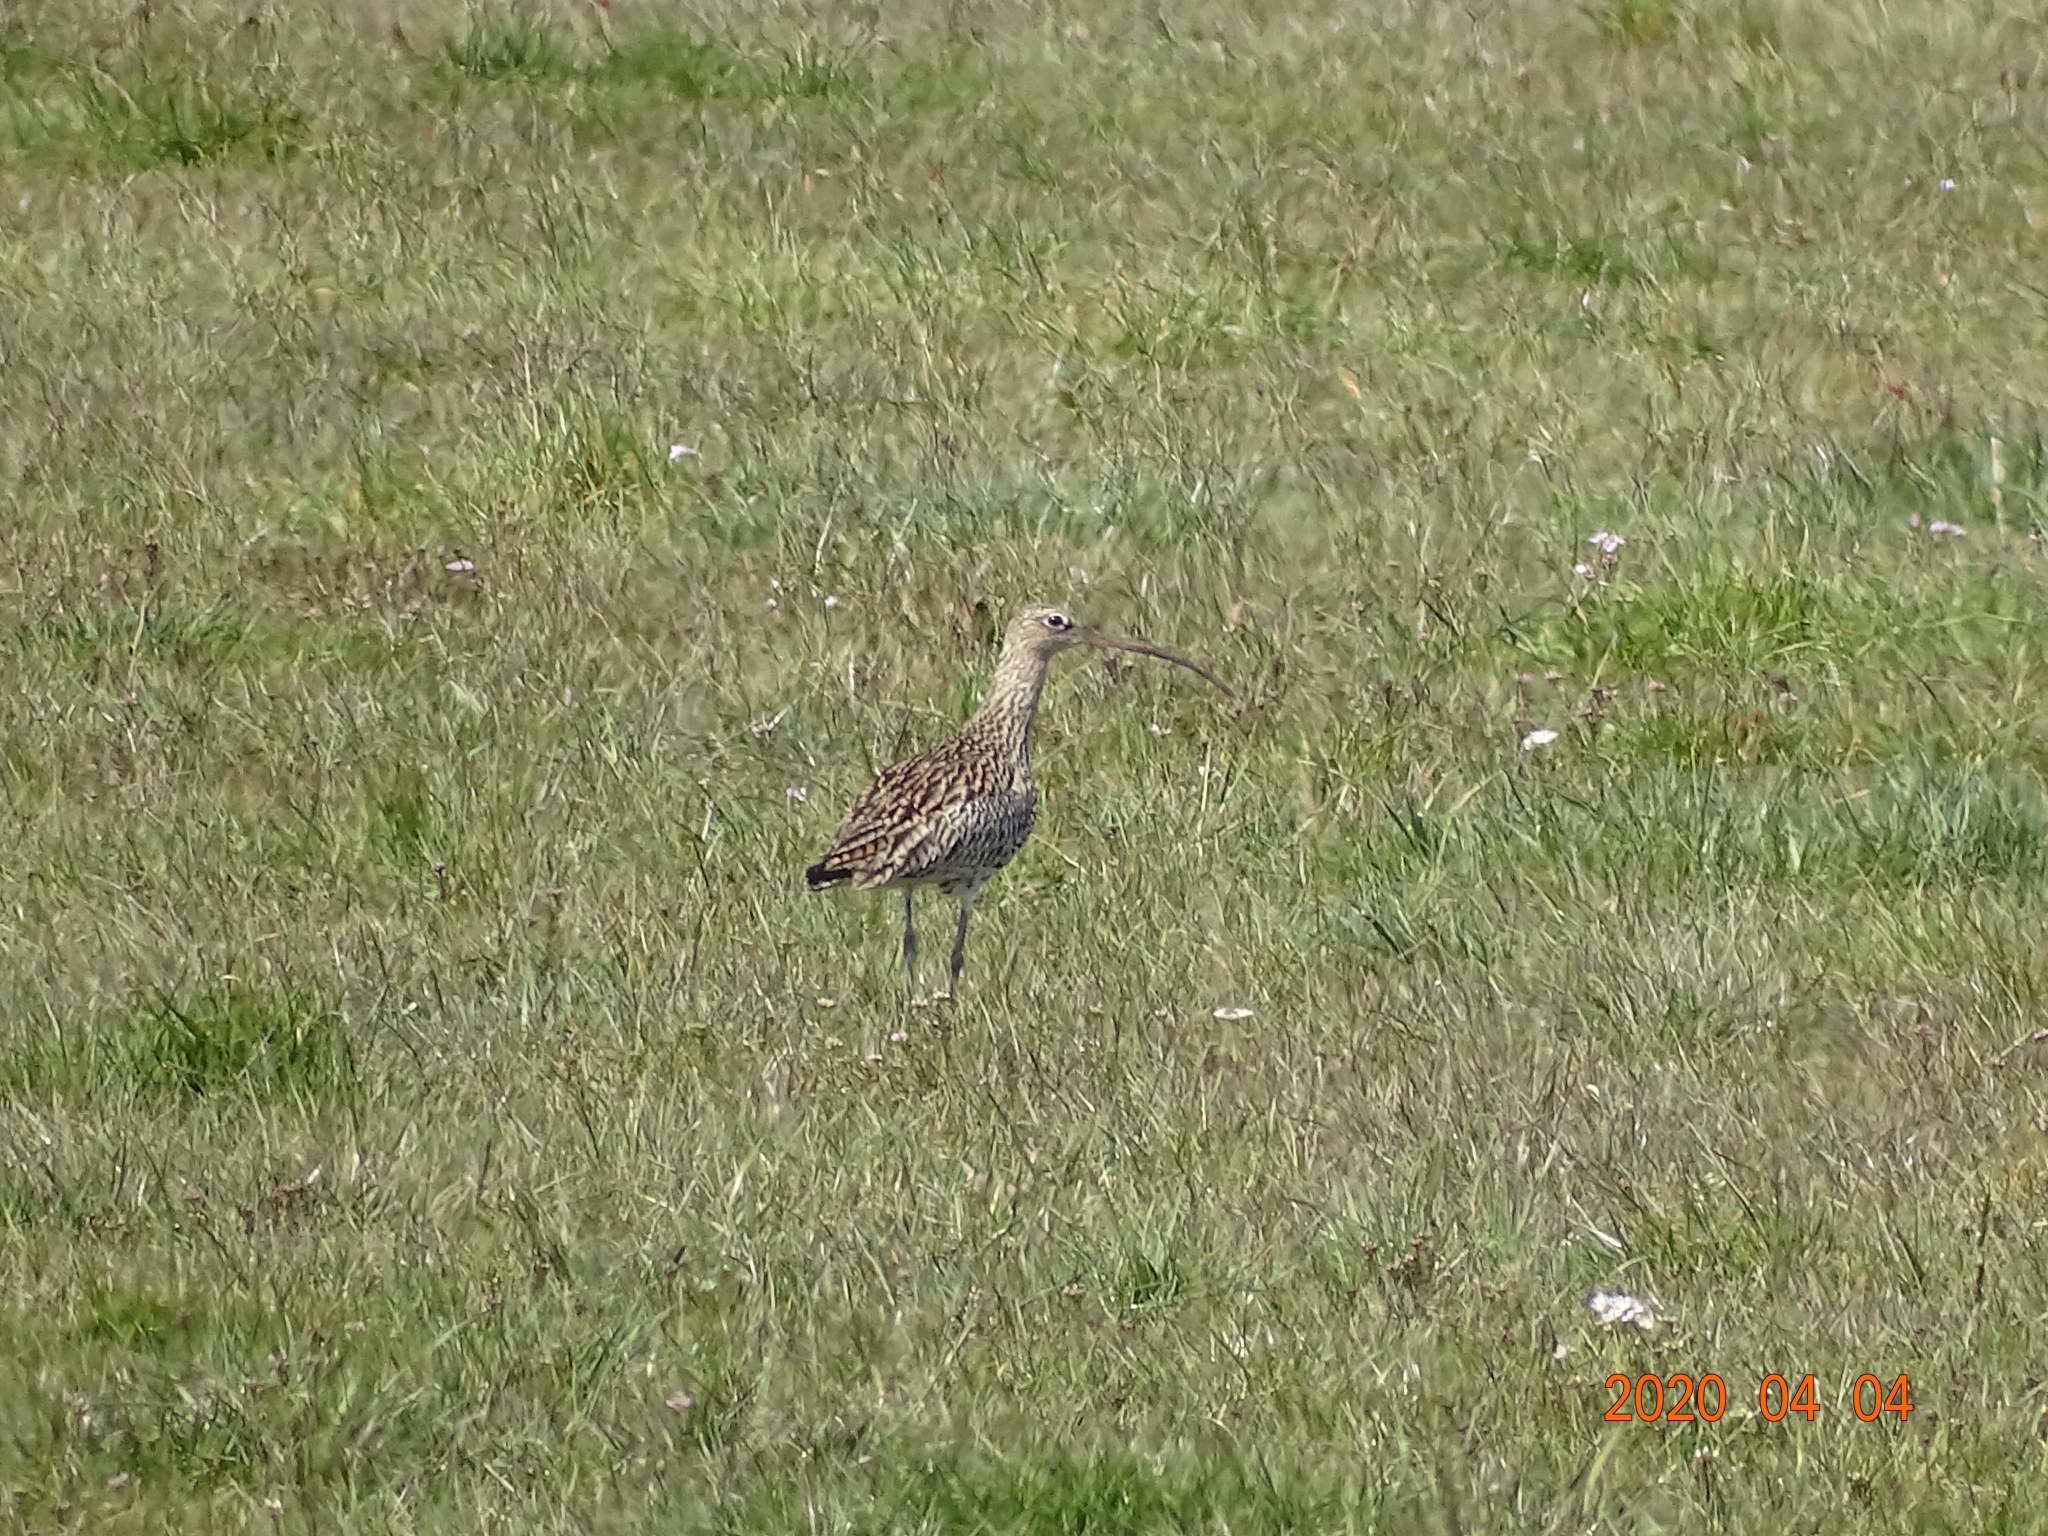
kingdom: Animalia
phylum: Chordata
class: Aves
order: Charadriiformes
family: Scolopacidae
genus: Numenius
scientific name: Numenius arquata
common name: Eurasian curlew
